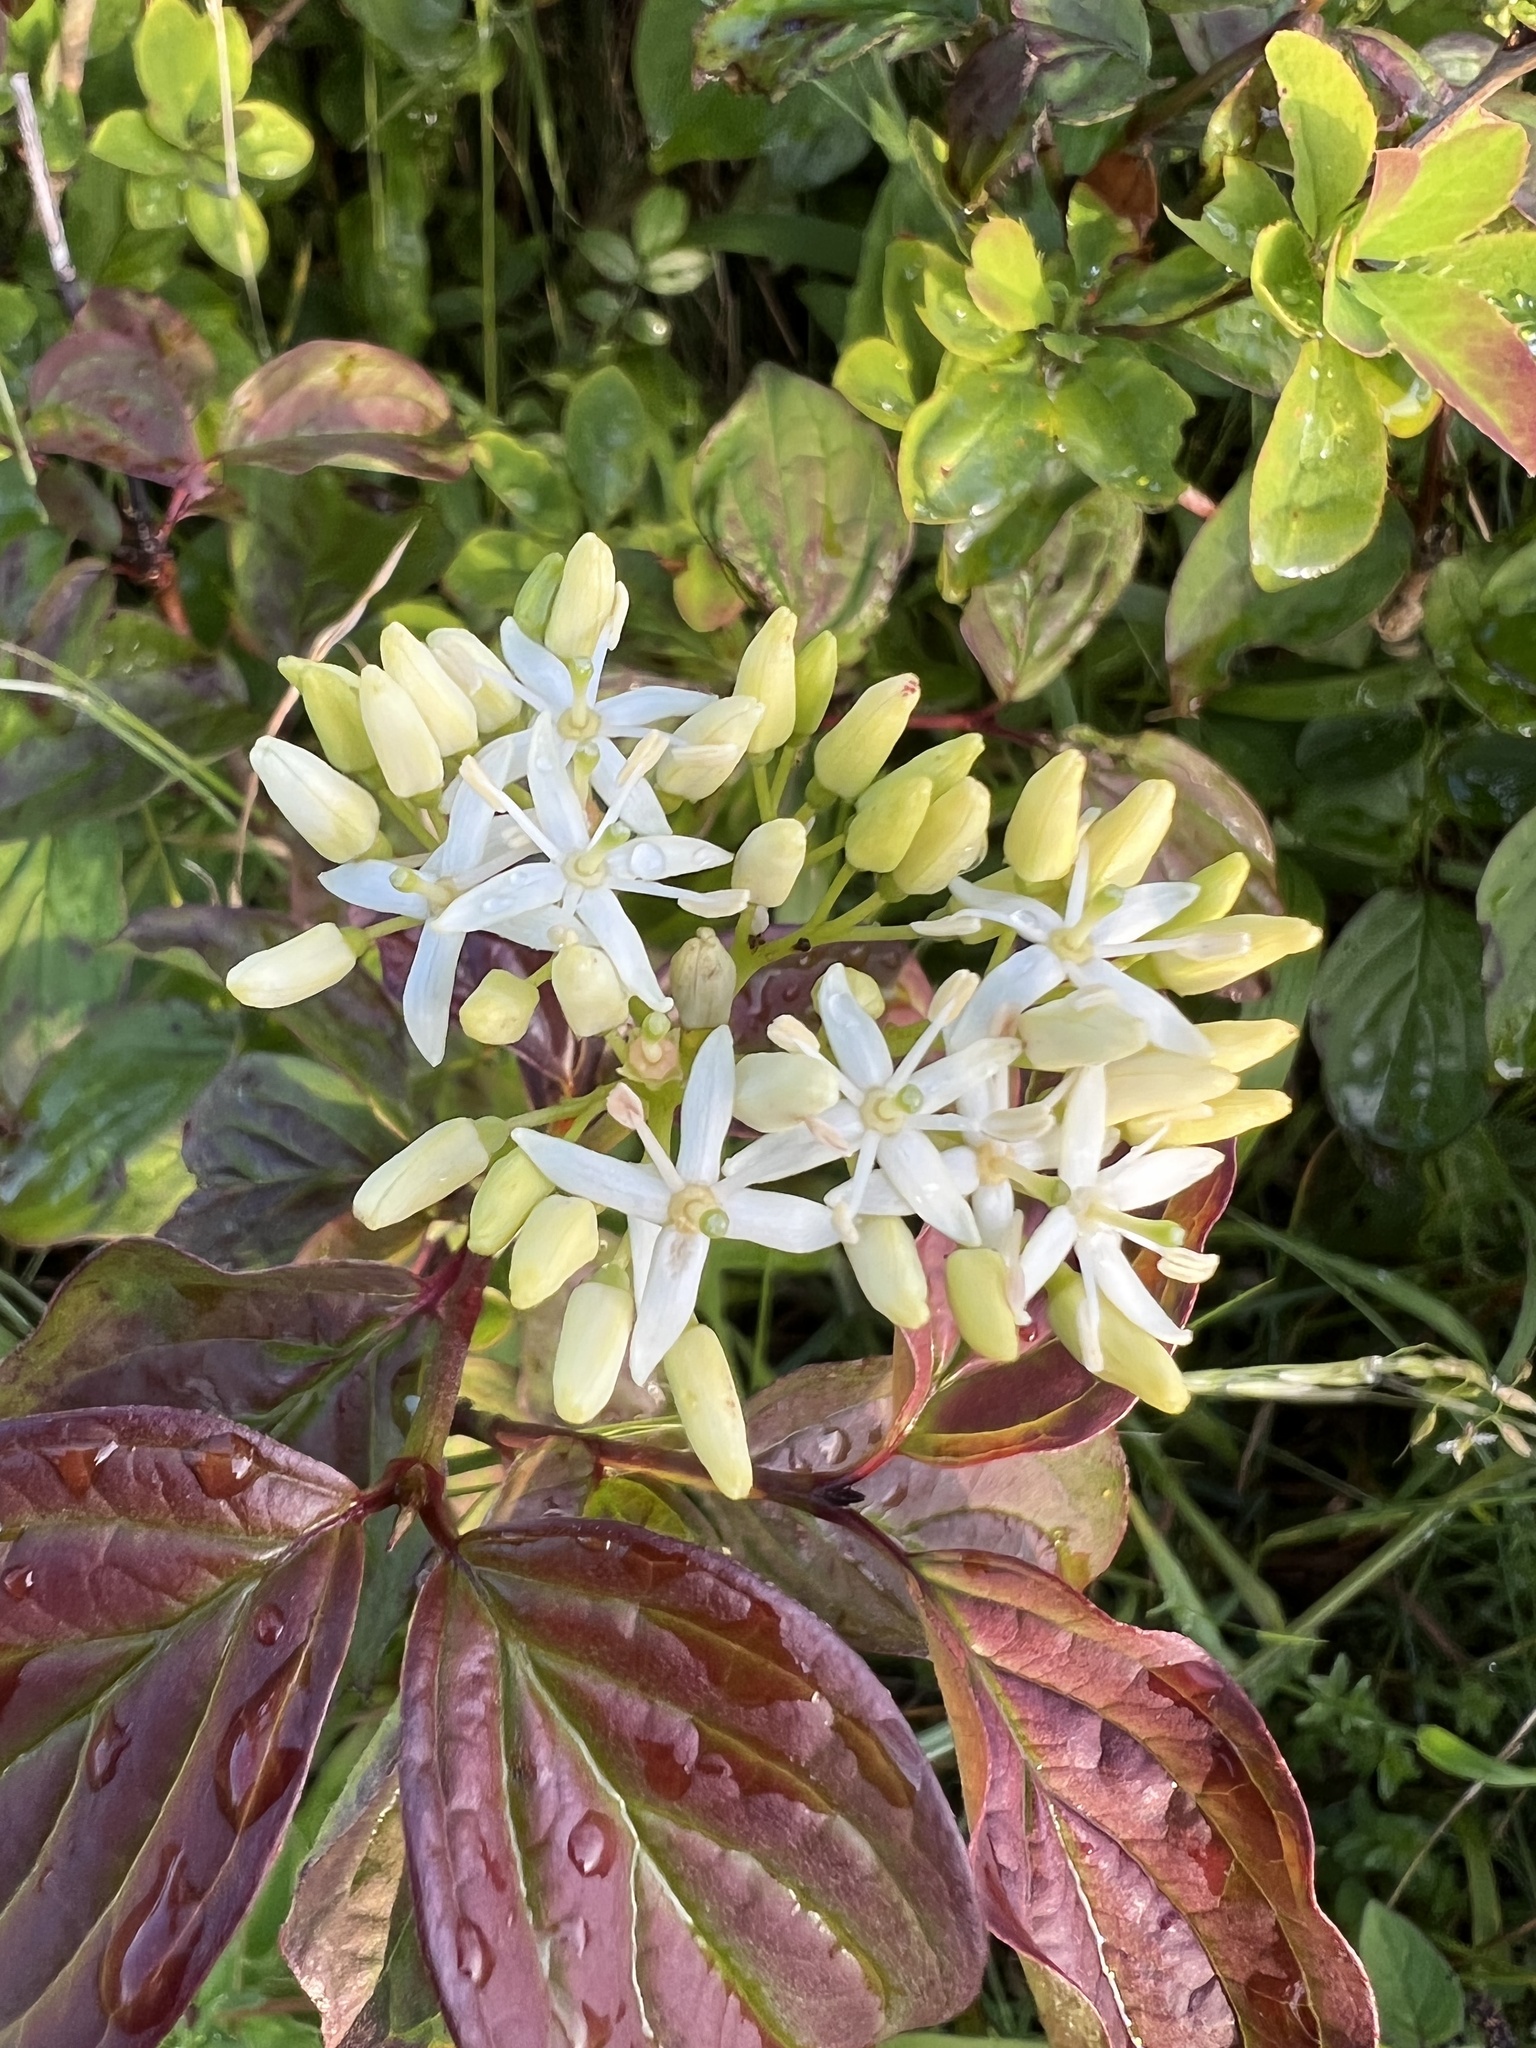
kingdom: Plantae
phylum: Tracheophyta
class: Magnoliopsida
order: Cornales
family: Cornaceae
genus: Cornus
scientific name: Cornus sanguinea
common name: Dogwood
